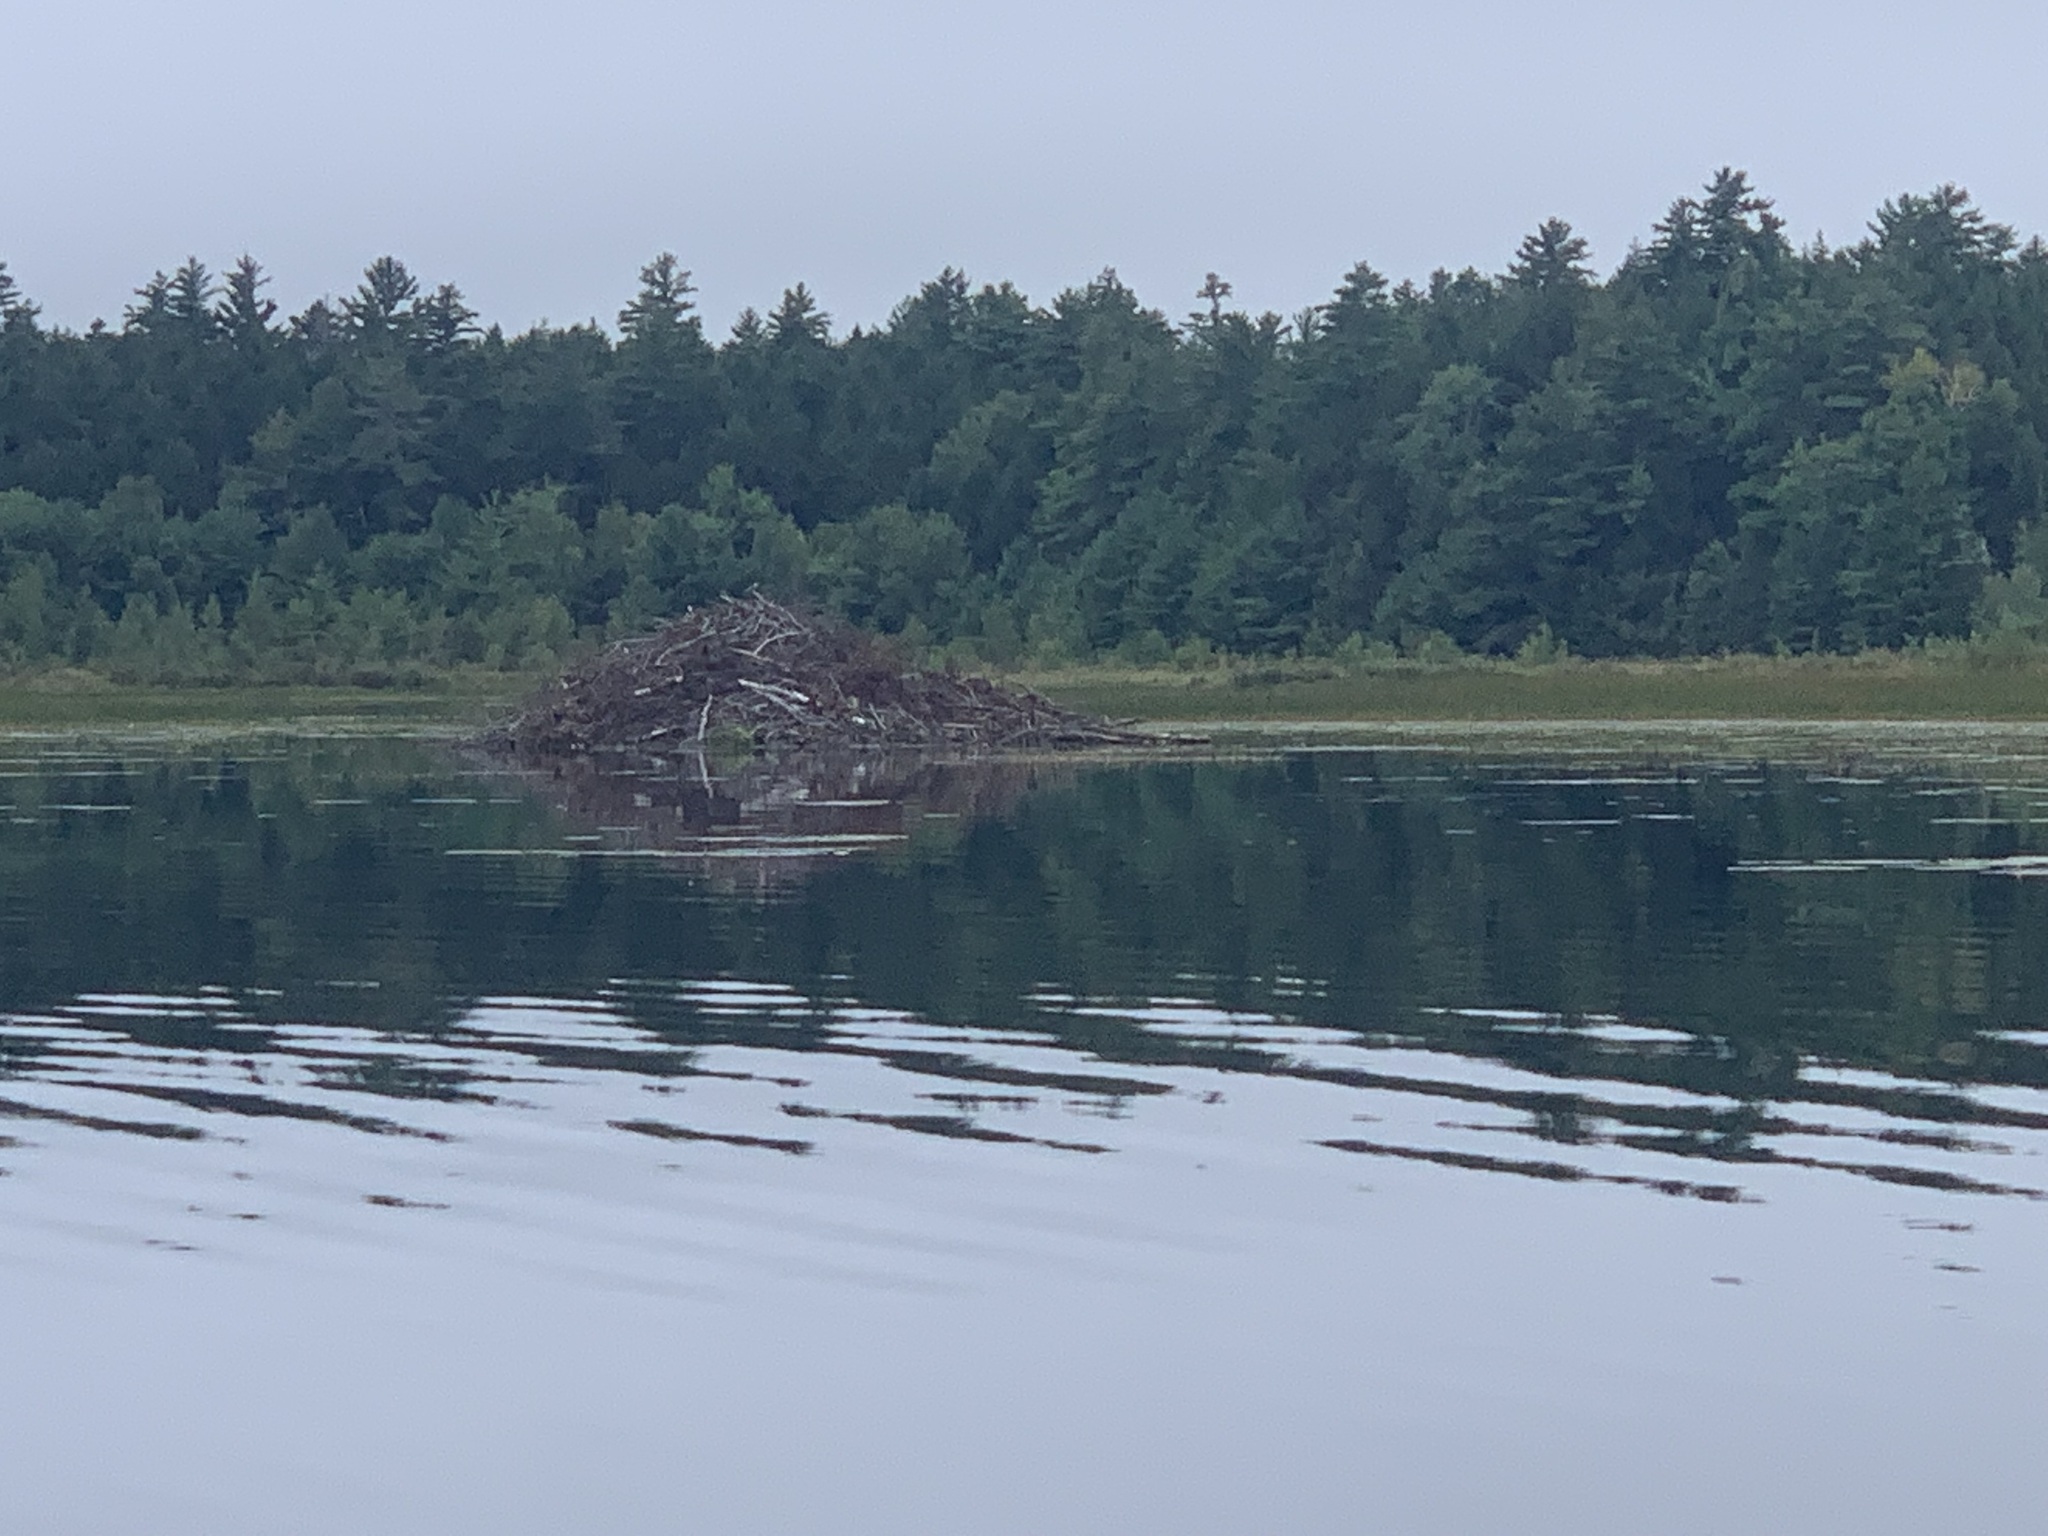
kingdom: Animalia
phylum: Chordata
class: Mammalia
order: Rodentia
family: Castoridae
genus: Castor
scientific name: Castor canadensis
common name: American beaver
